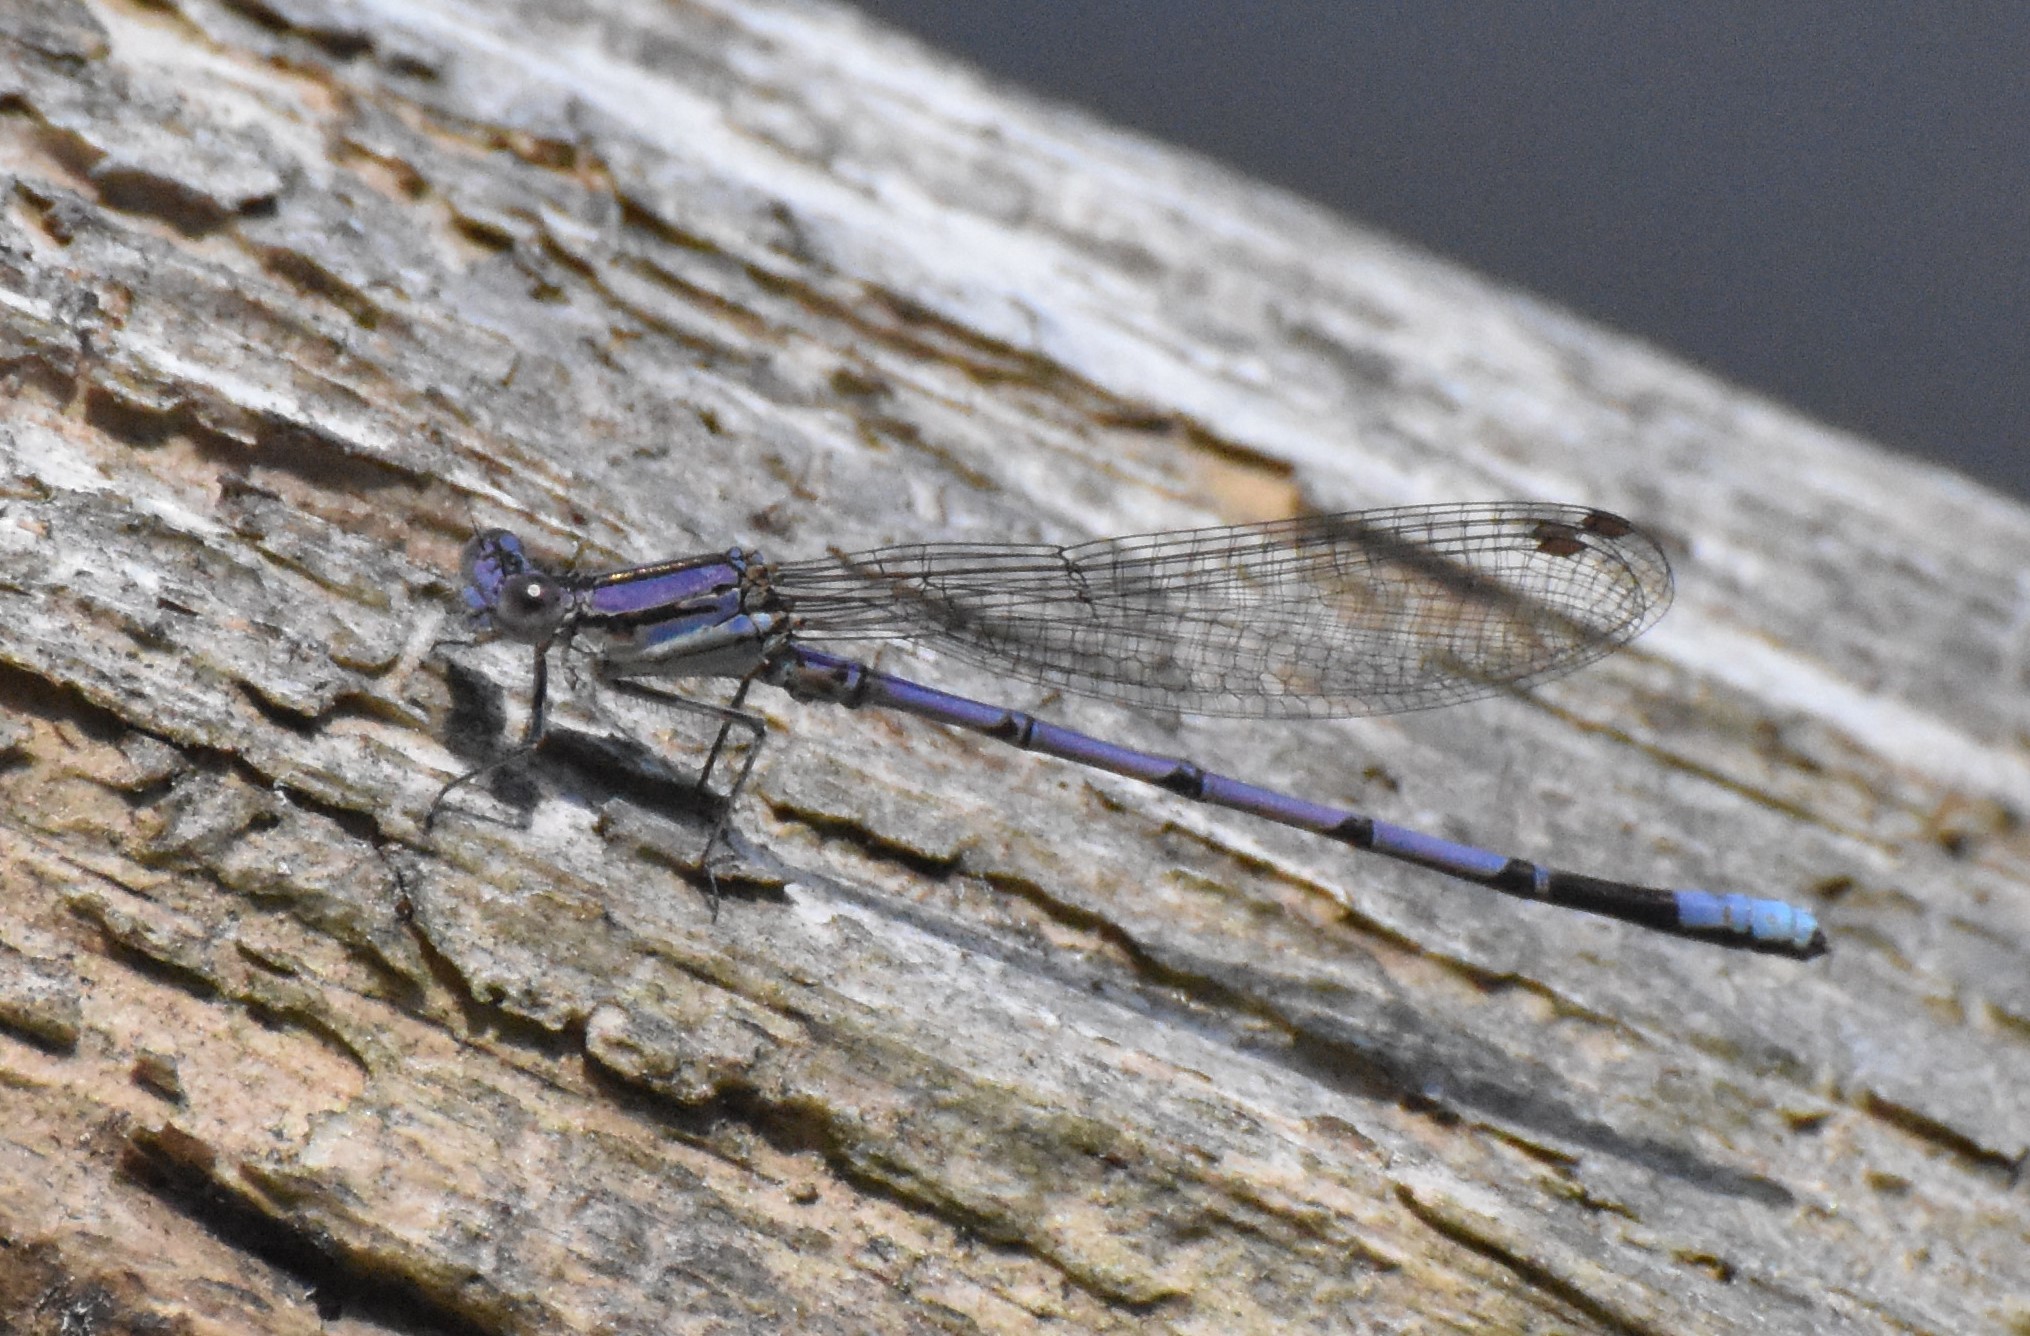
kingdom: Animalia
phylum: Arthropoda
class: Insecta
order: Odonata
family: Coenagrionidae
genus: Argia
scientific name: Argia fumipennis
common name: Variable dancer
